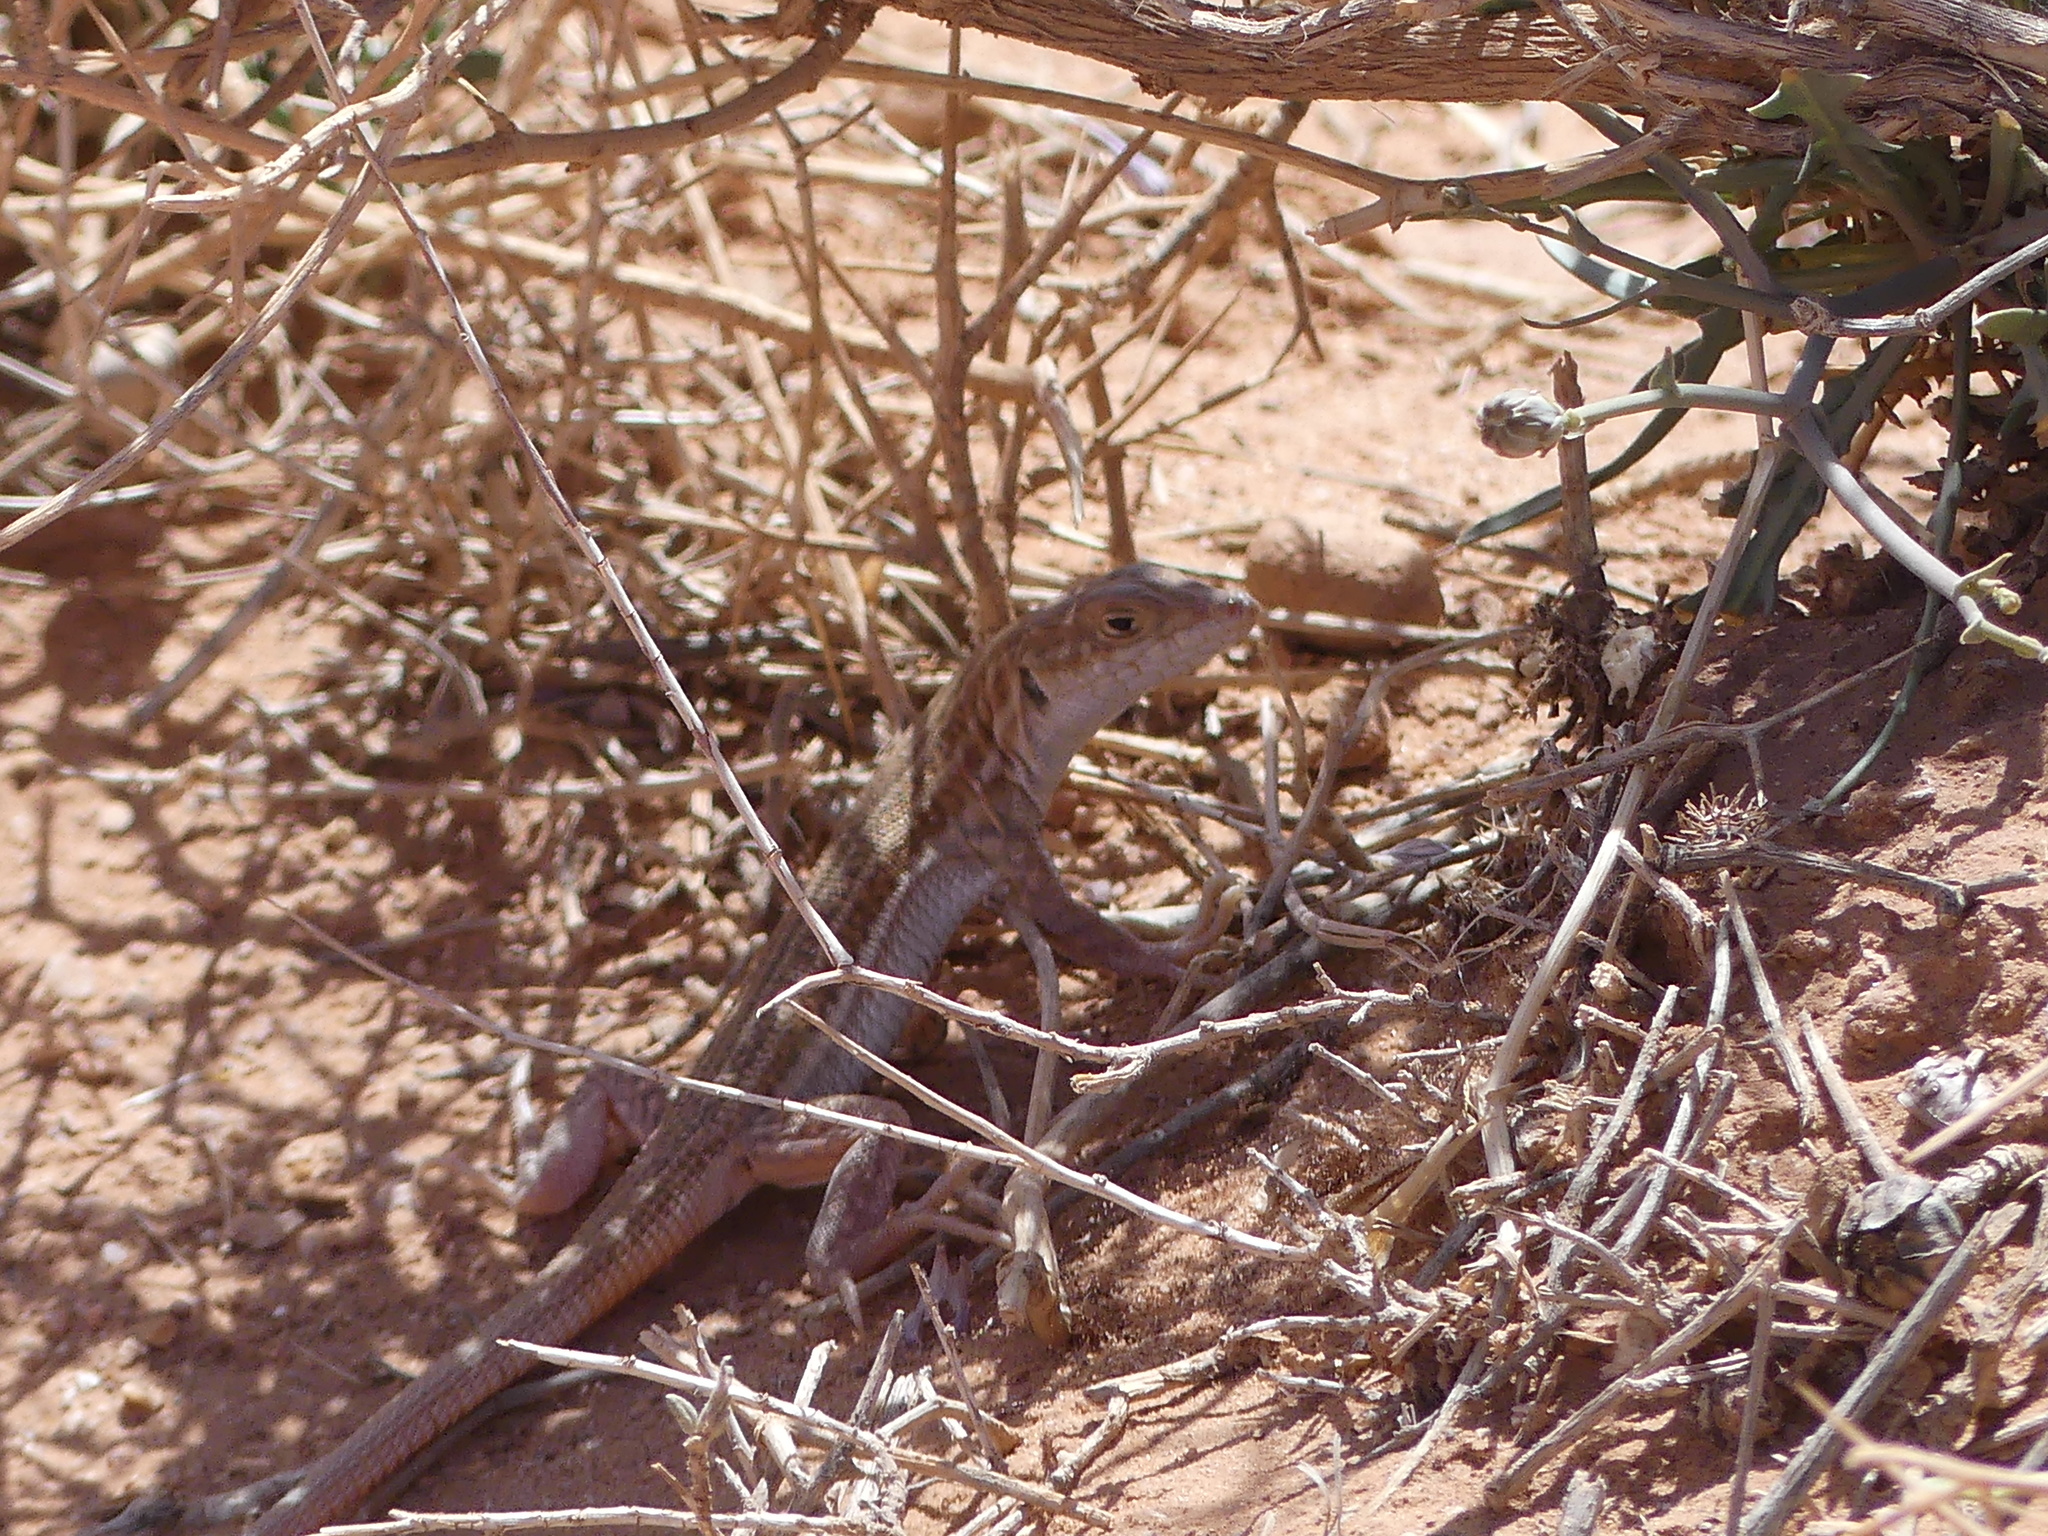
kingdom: Animalia
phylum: Chordata
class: Squamata
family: Lacertidae
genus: Acanthodactylus
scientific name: Acanthodactylus boskianus
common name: Bosc’s fringe-toed lizard
